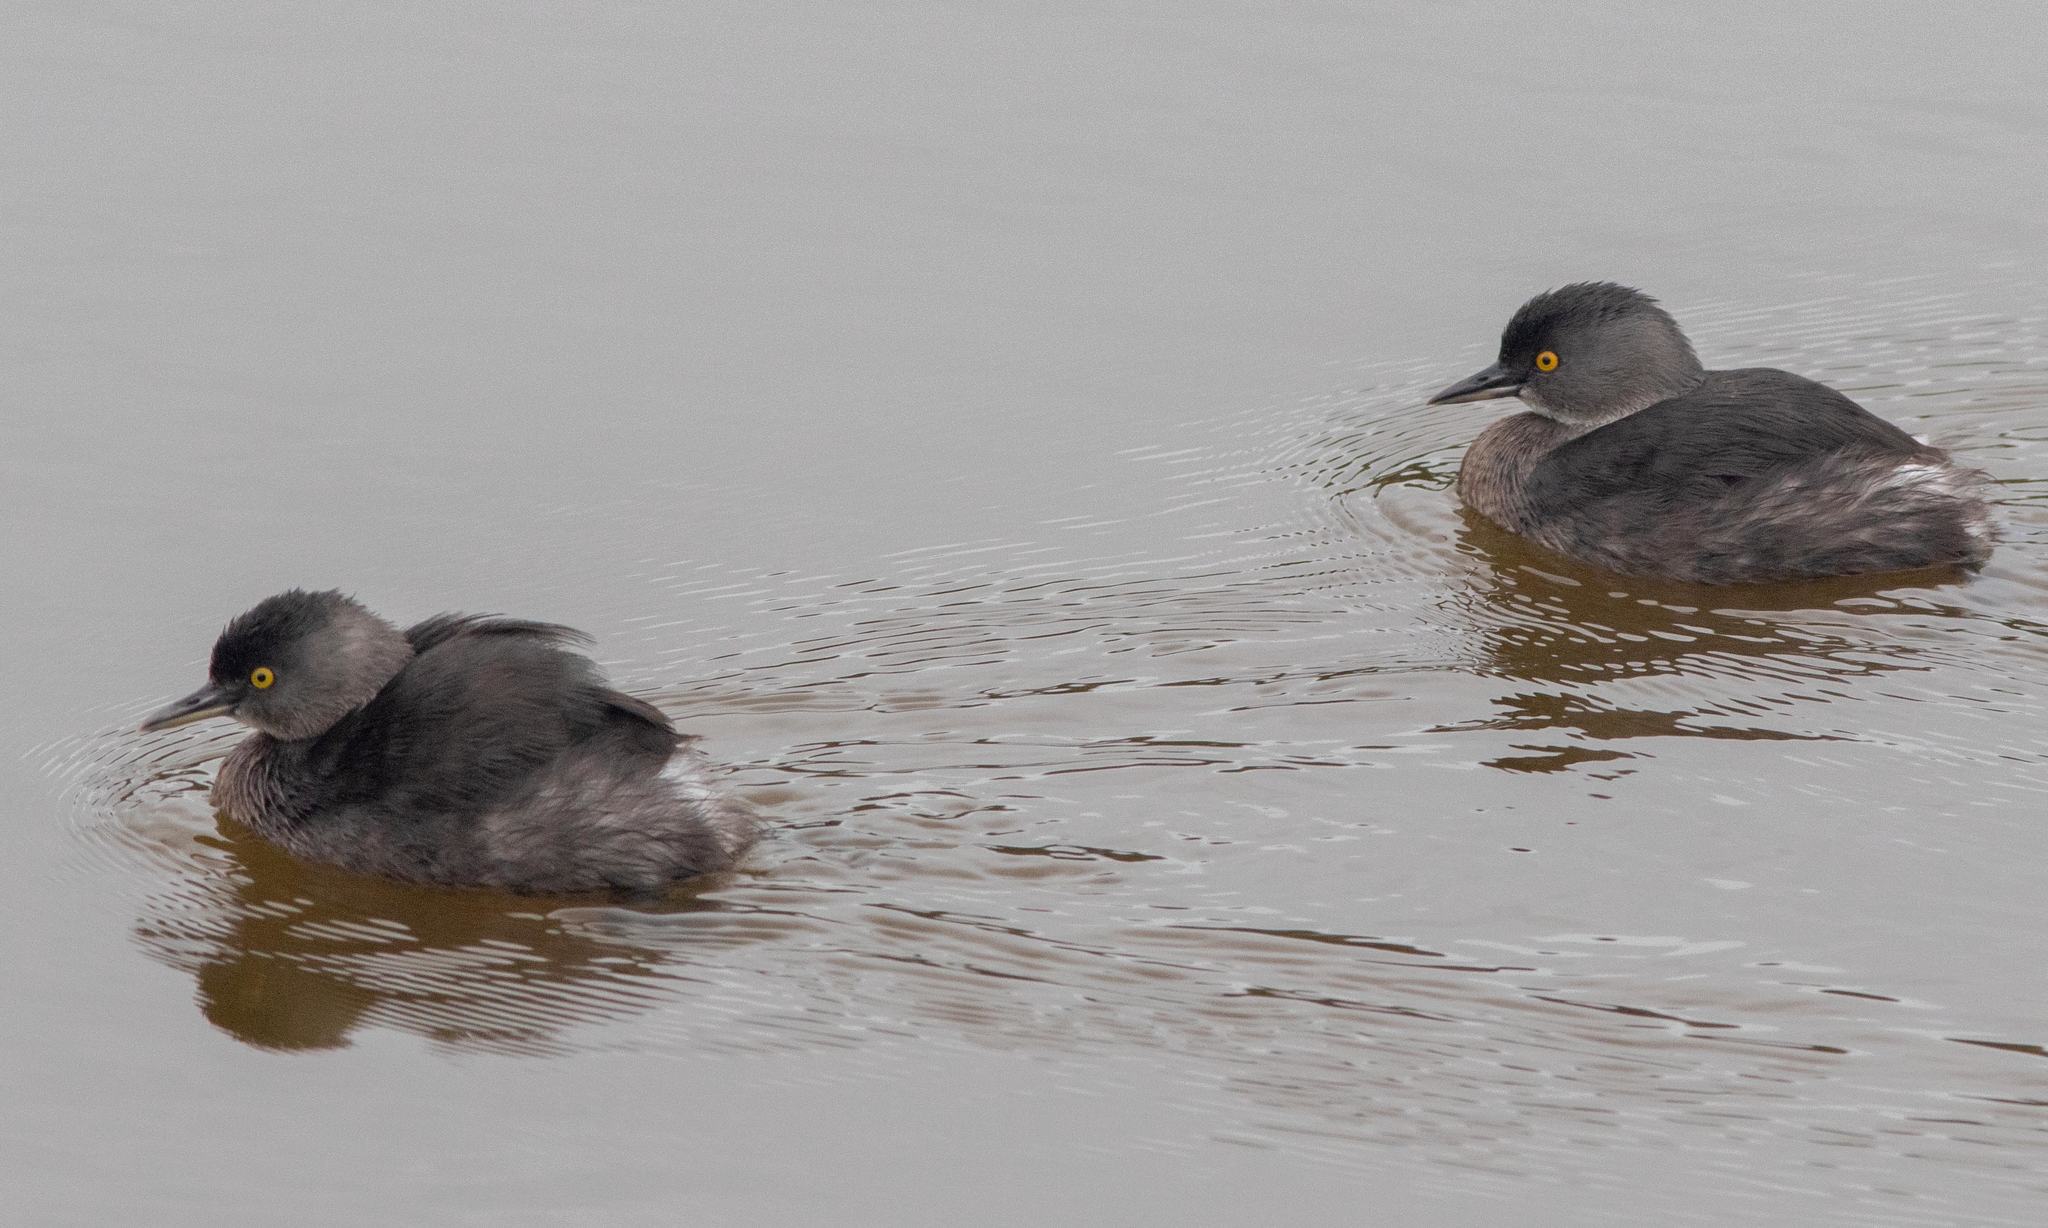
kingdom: Animalia
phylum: Chordata
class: Aves
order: Podicipediformes
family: Podicipedidae
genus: Tachybaptus
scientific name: Tachybaptus dominicus
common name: Least grebe
